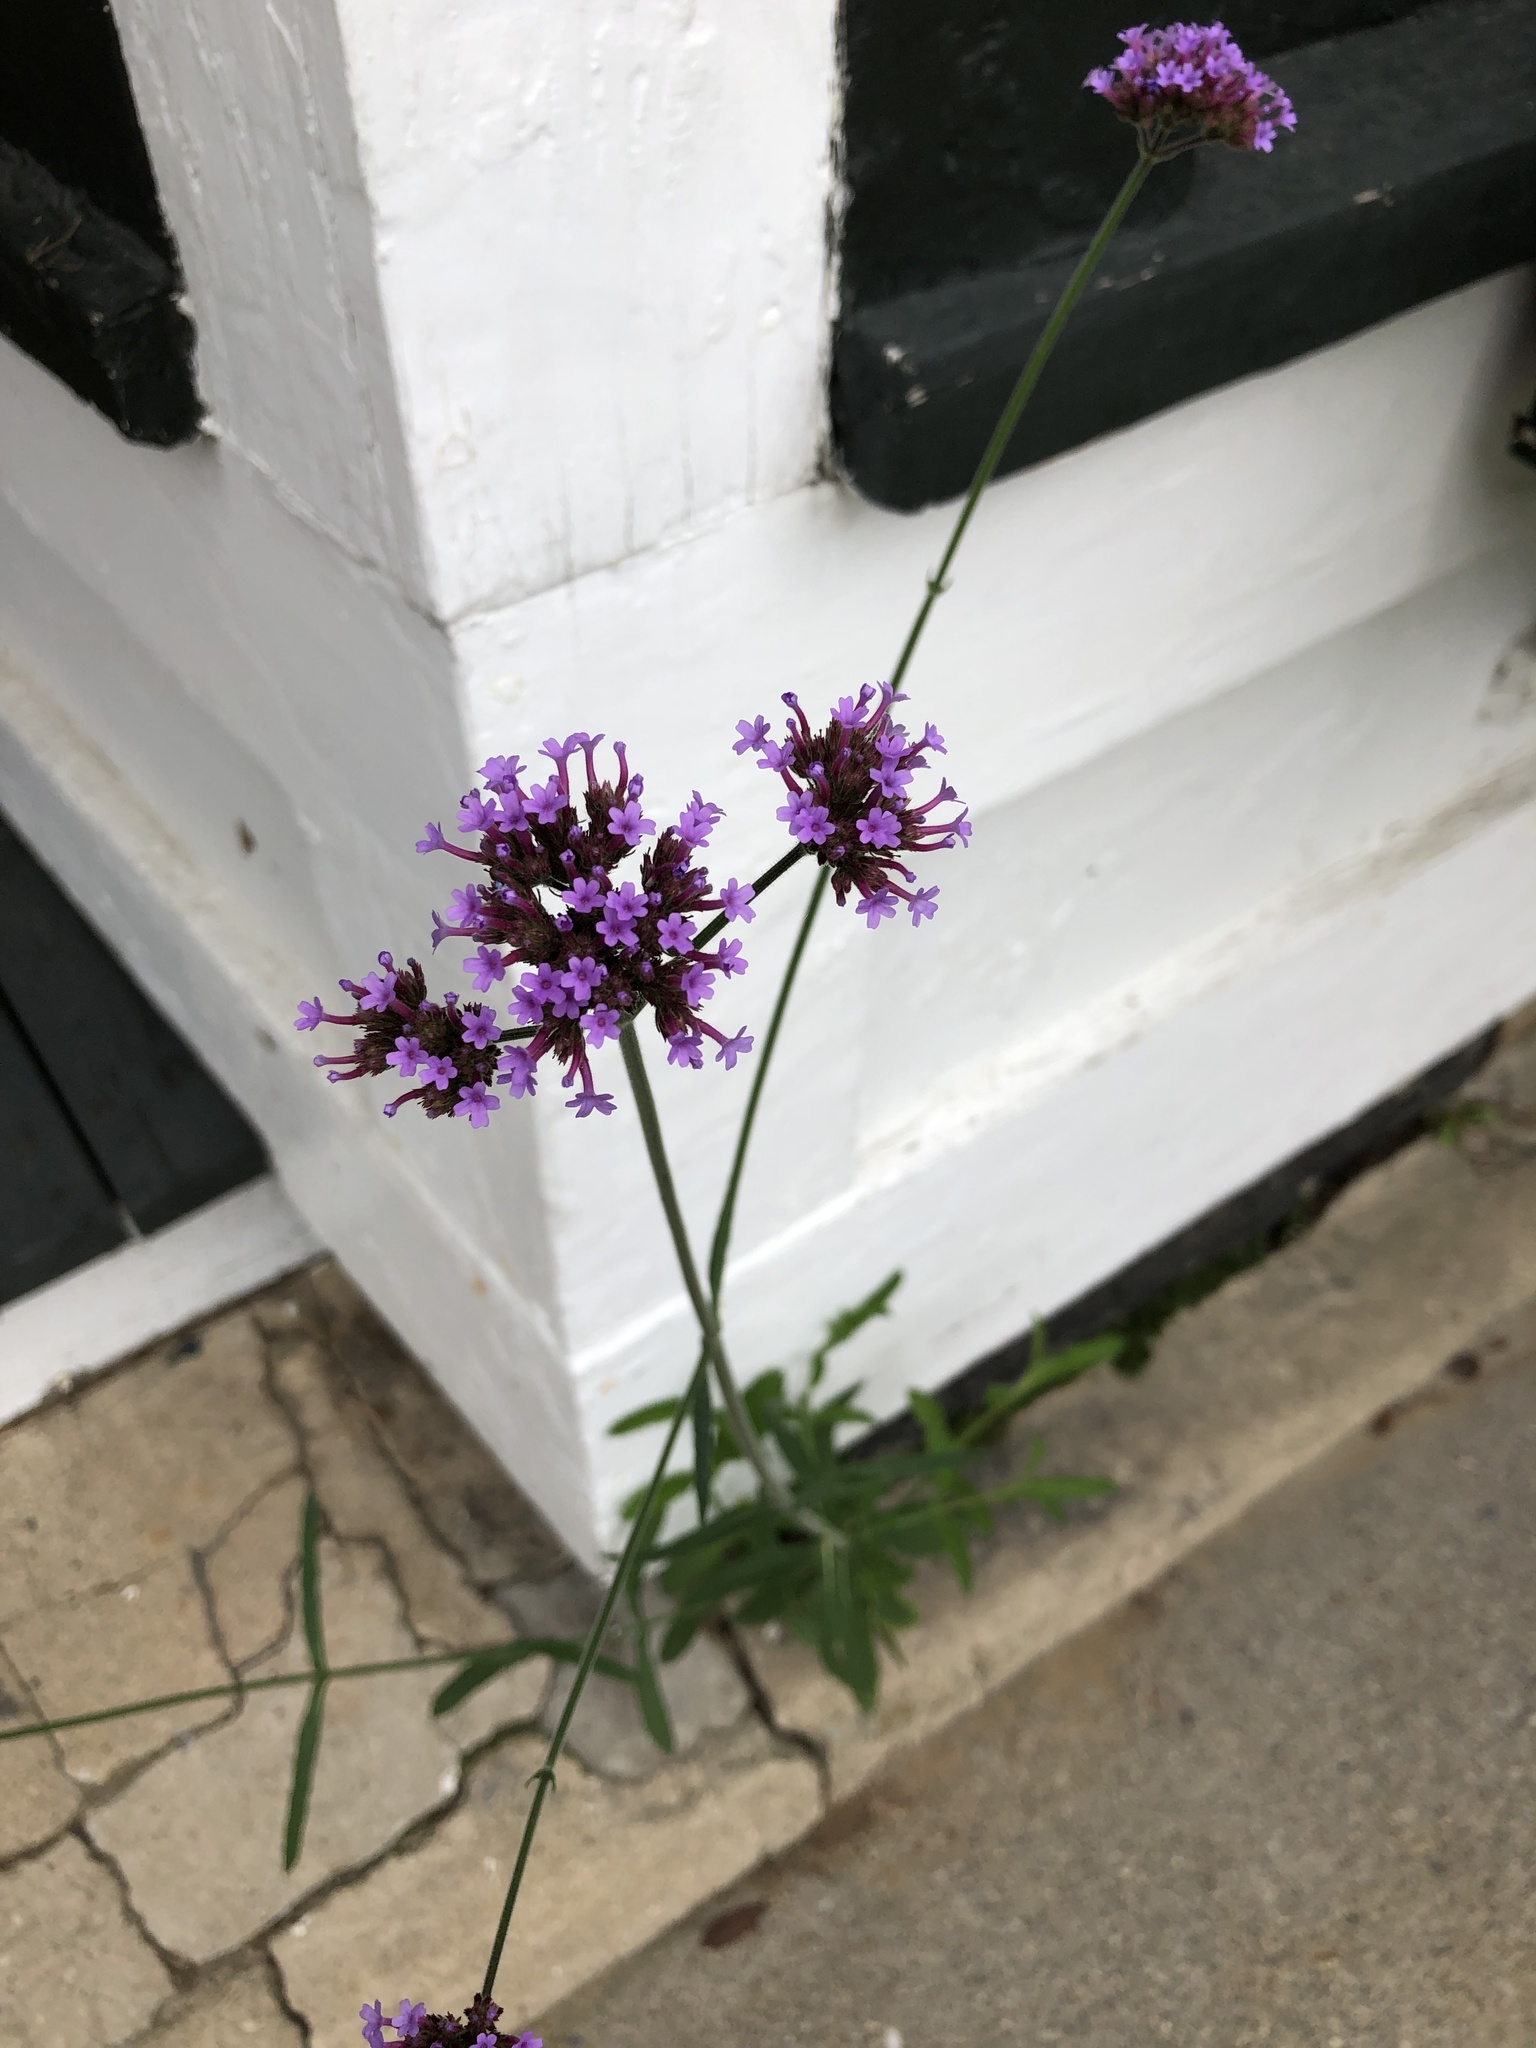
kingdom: Plantae
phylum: Tracheophyta
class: Magnoliopsida
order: Lamiales
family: Verbenaceae
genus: Verbena
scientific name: Verbena bonariensis
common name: Purpletop vervain
